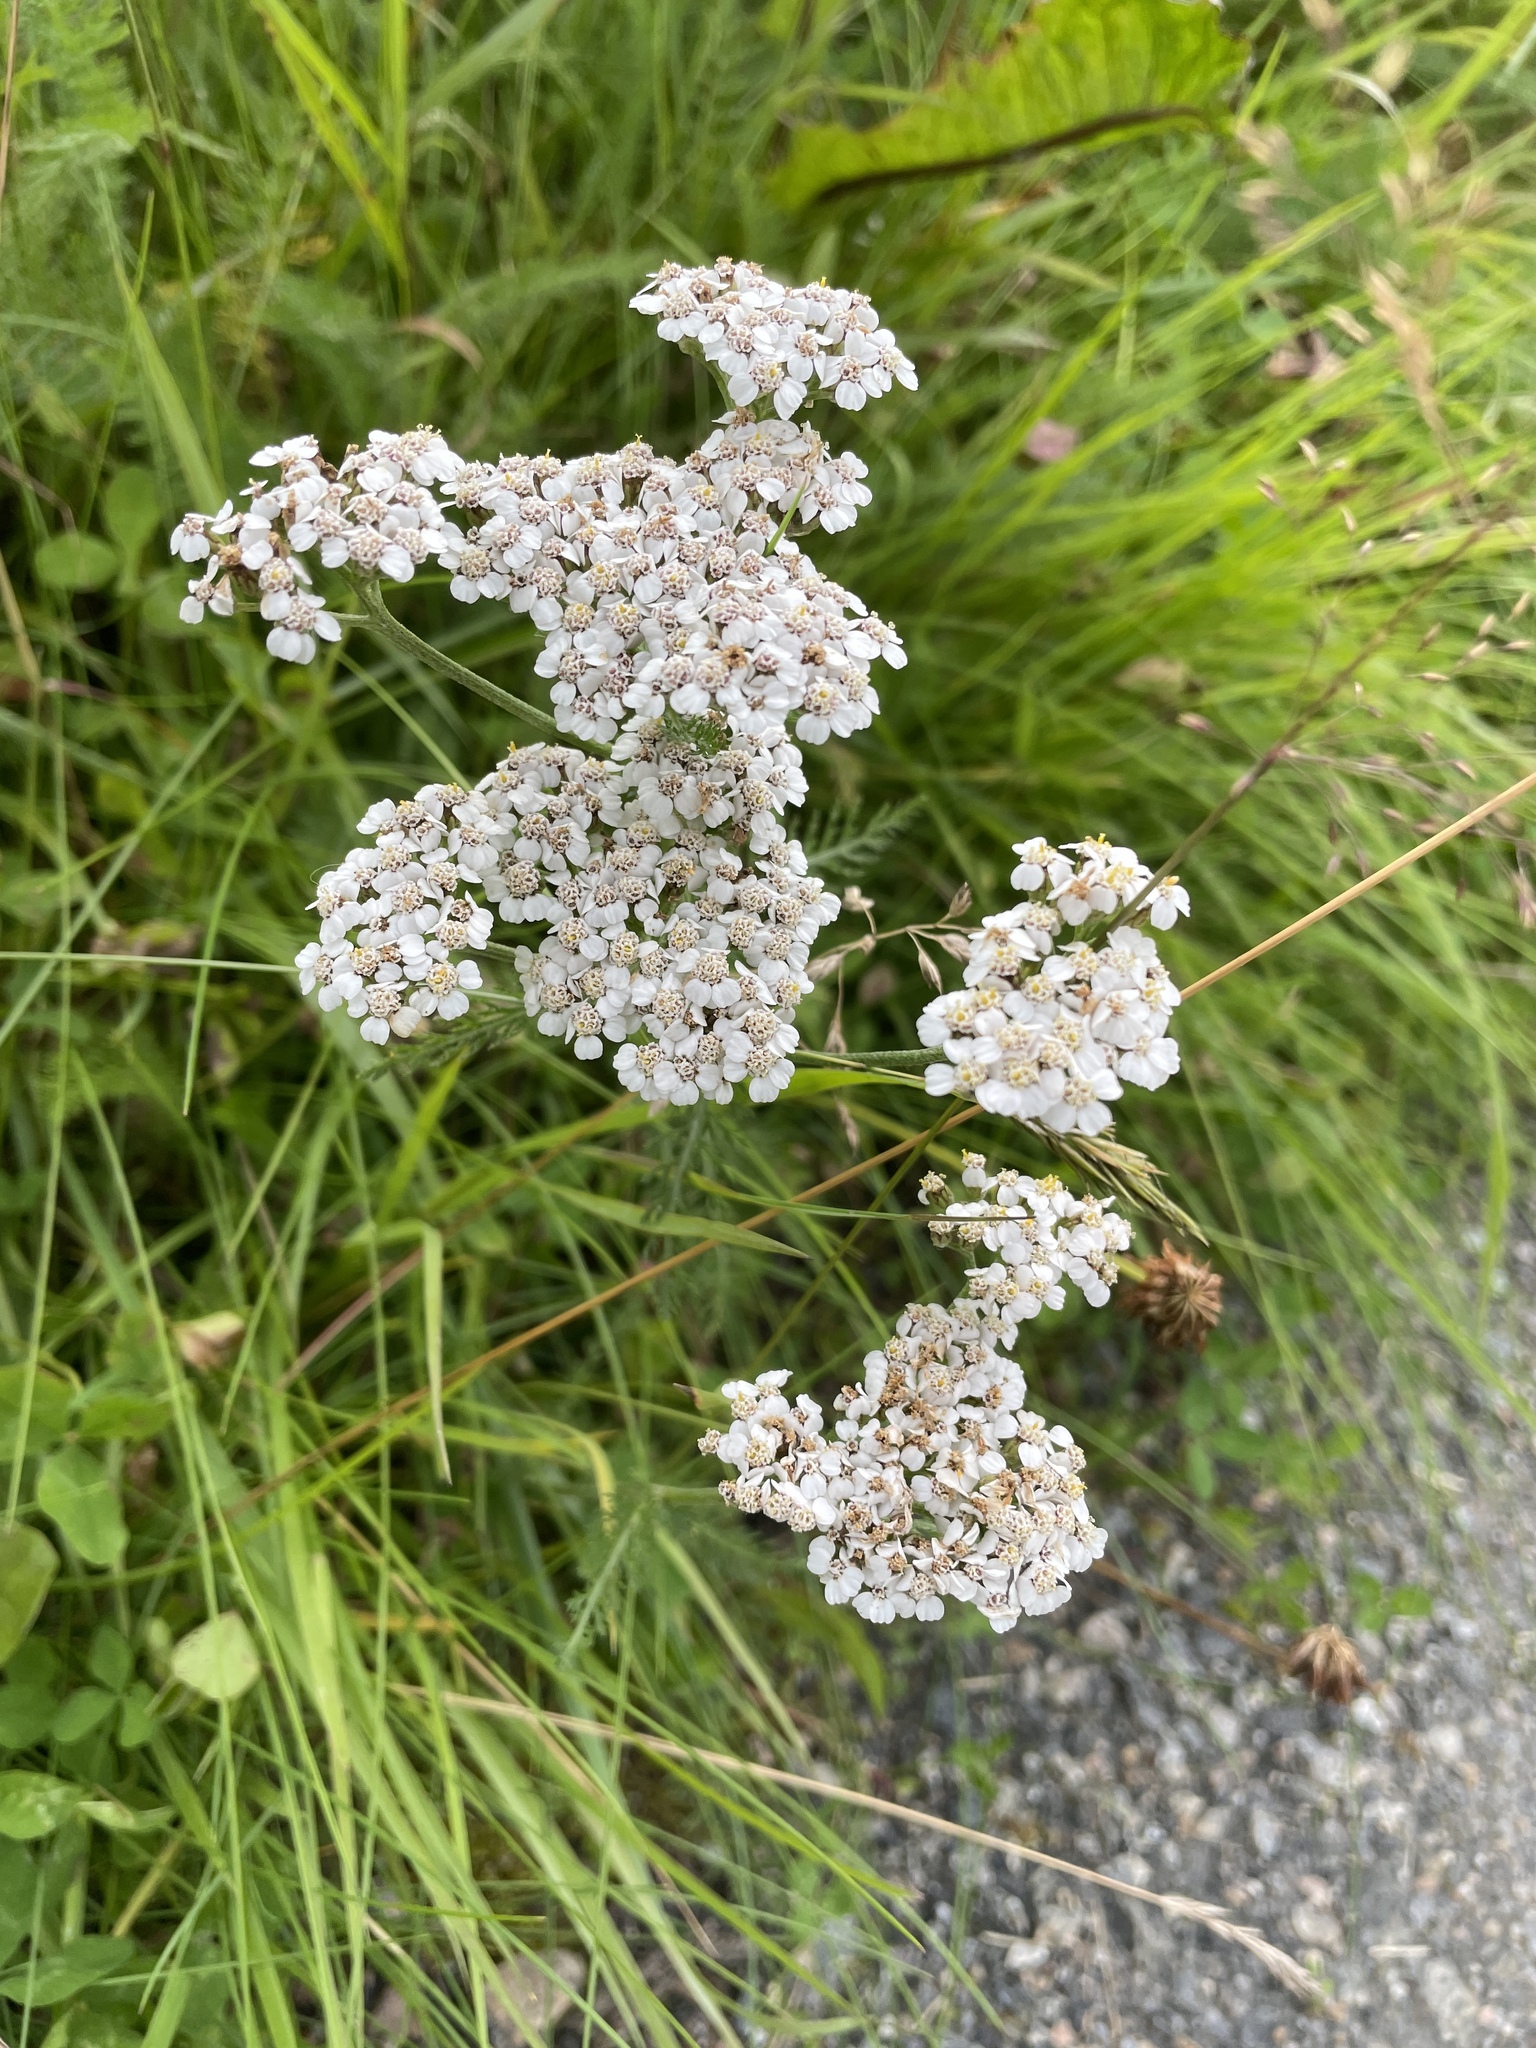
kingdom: Plantae
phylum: Tracheophyta
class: Magnoliopsida
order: Asterales
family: Asteraceae
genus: Achillea
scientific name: Achillea millefolium
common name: Yarrow
